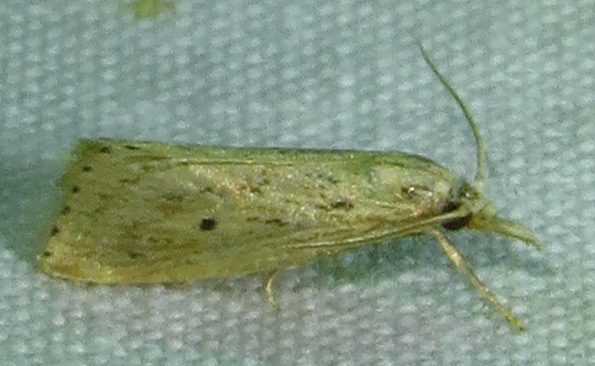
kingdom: Animalia
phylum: Arthropoda
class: Insecta
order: Lepidoptera
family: Crambidae
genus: Diatraea
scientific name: Diatraea lisetta
